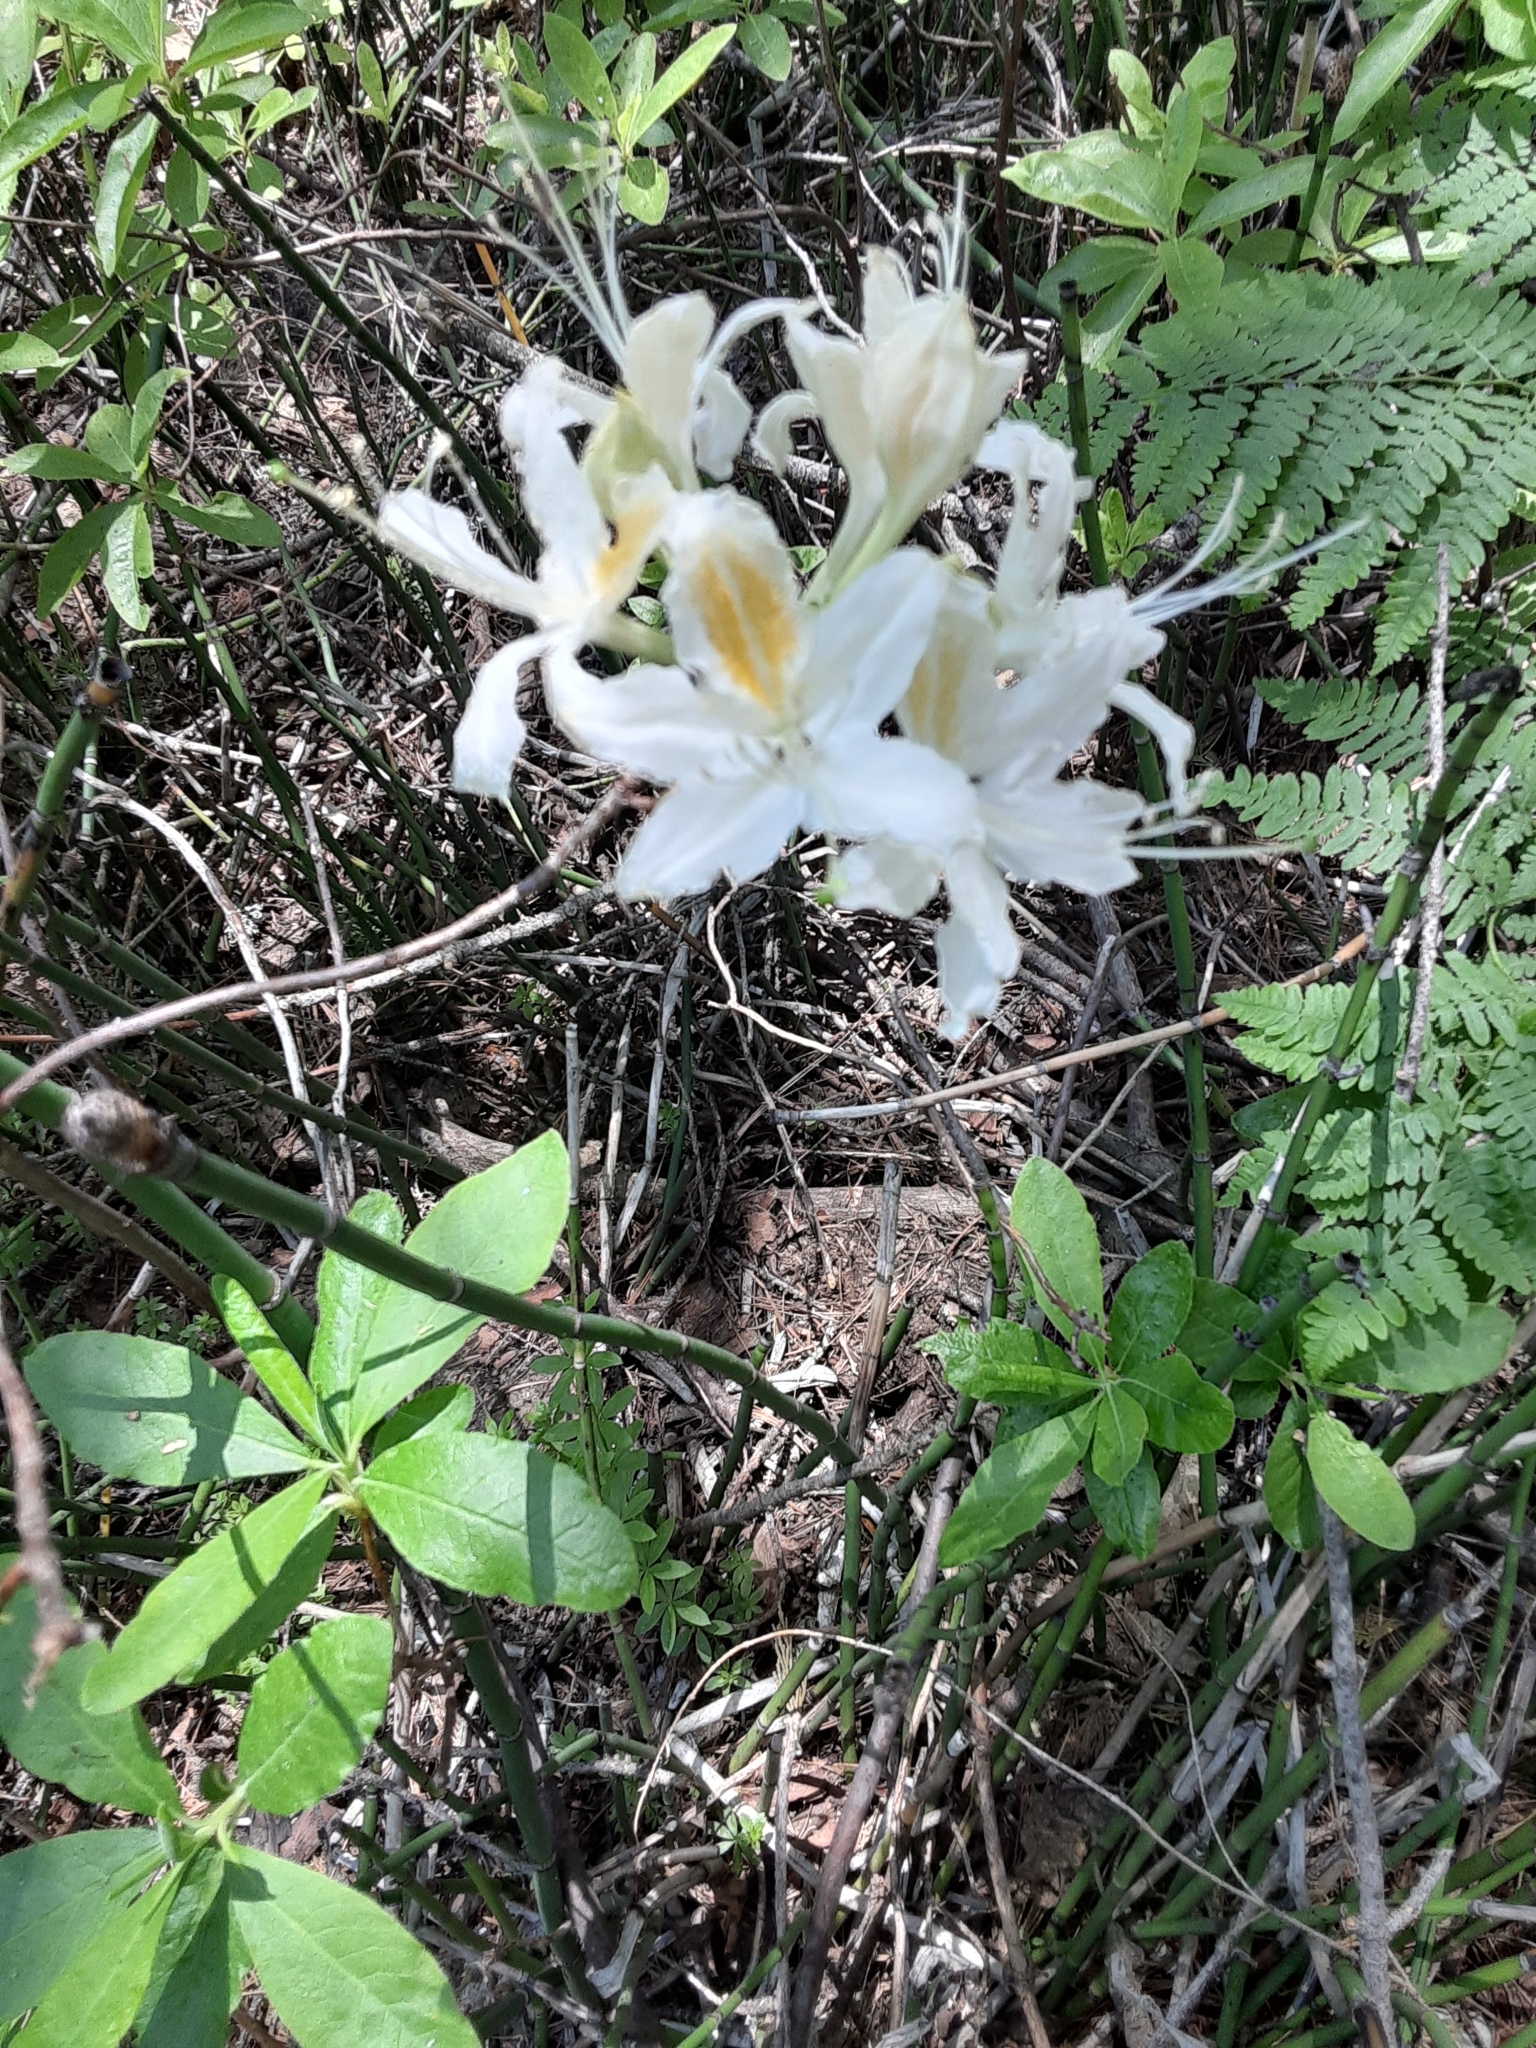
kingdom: Plantae
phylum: Tracheophyta
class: Magnoliopsida
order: Ericales
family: Ericaceae
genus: Rhododendron
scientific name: Rhododendron occidentale
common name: Western azalea
